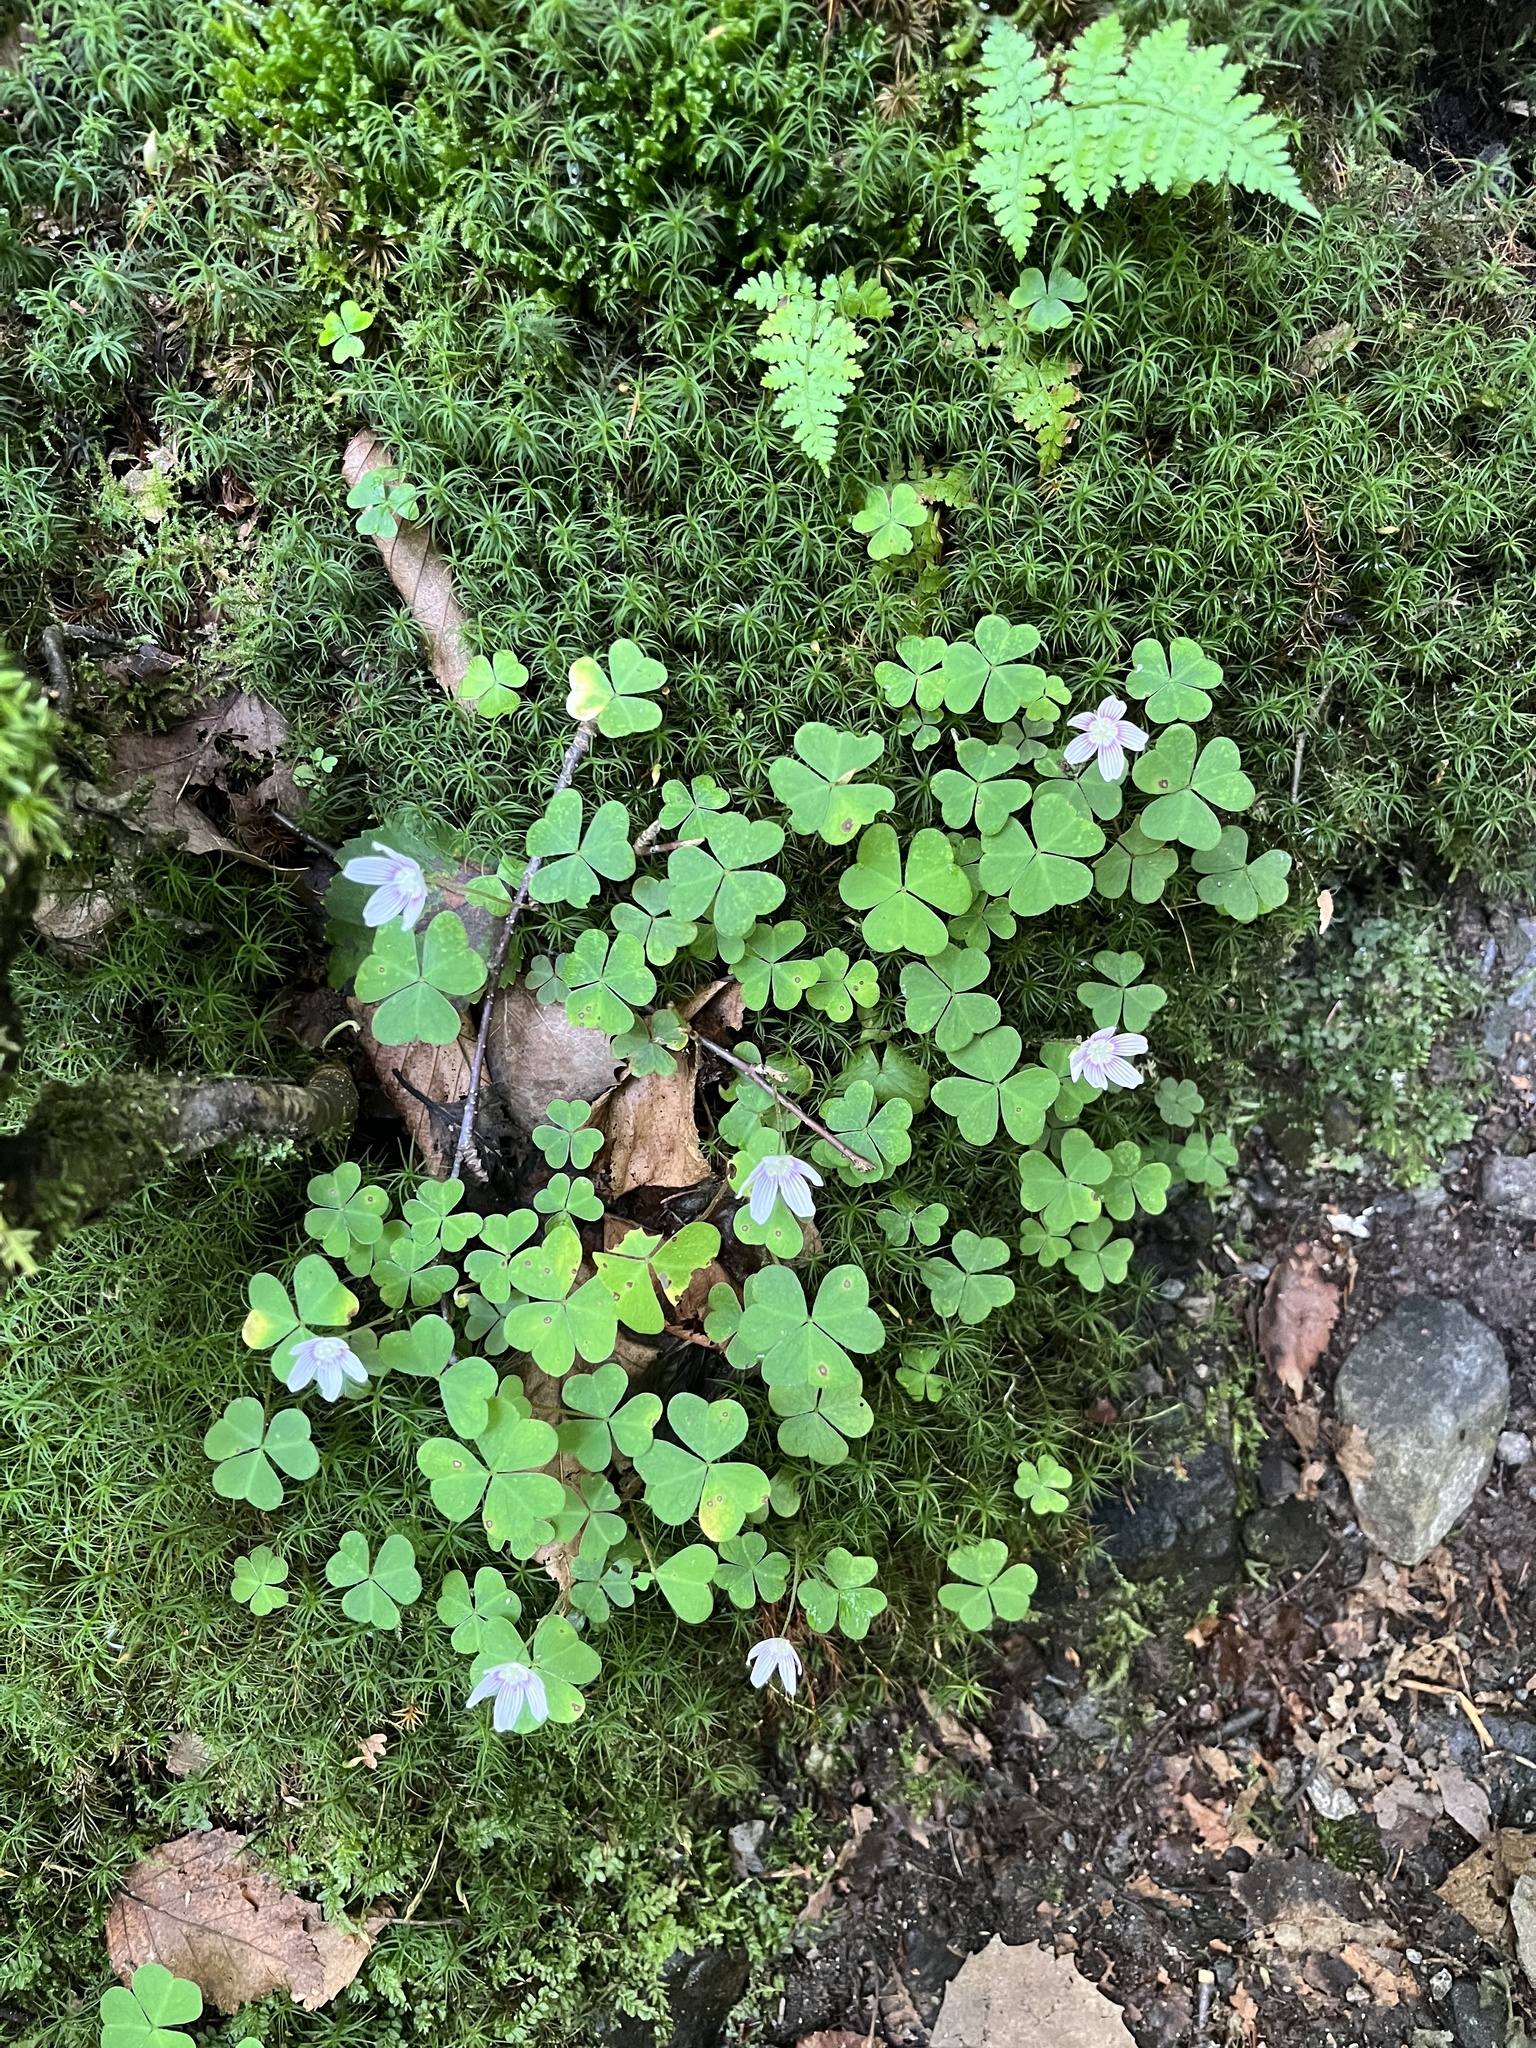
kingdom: Plantae
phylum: Tracheophyta
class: Magnoliopsida
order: Oxalidales
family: Oxalidaceae
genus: Oxalis
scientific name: Oxalis montana
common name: American wood-sorrel
